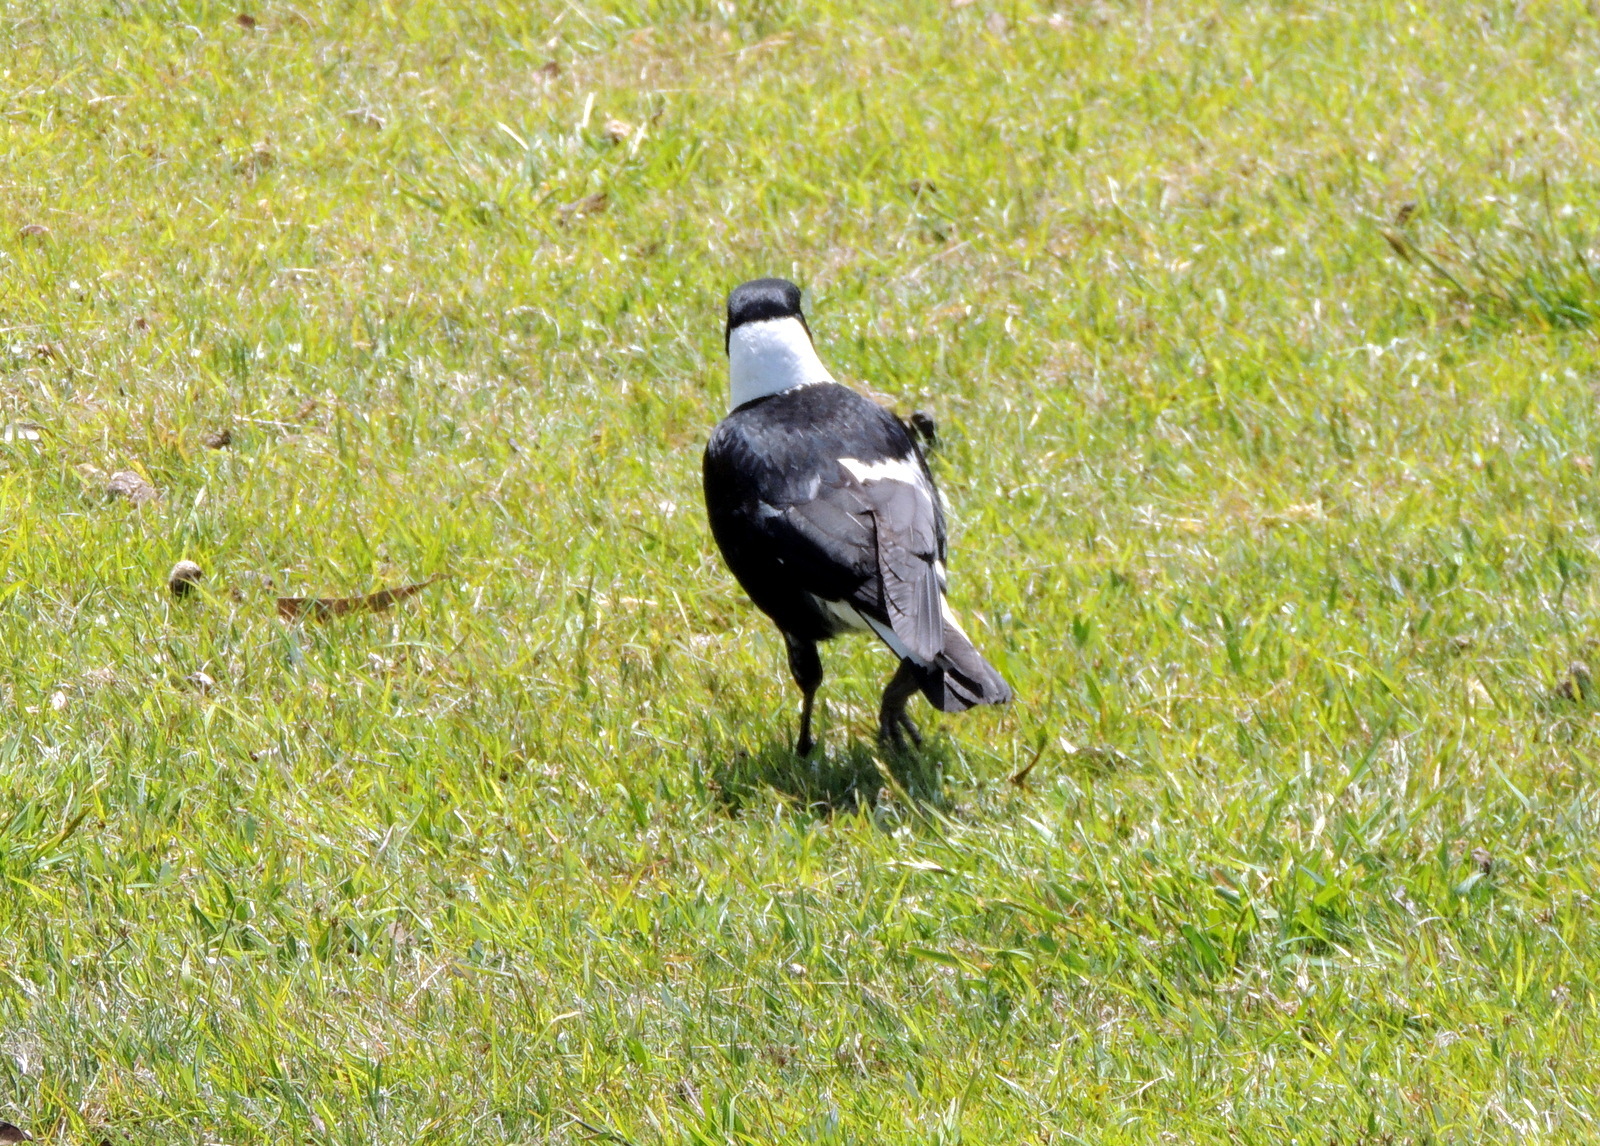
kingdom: Animalia
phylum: Chordata
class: Aves
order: Passeriformes
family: Cracticidae
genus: Gymnorhina
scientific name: Gymnorhina tibicen
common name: Australian magpie
